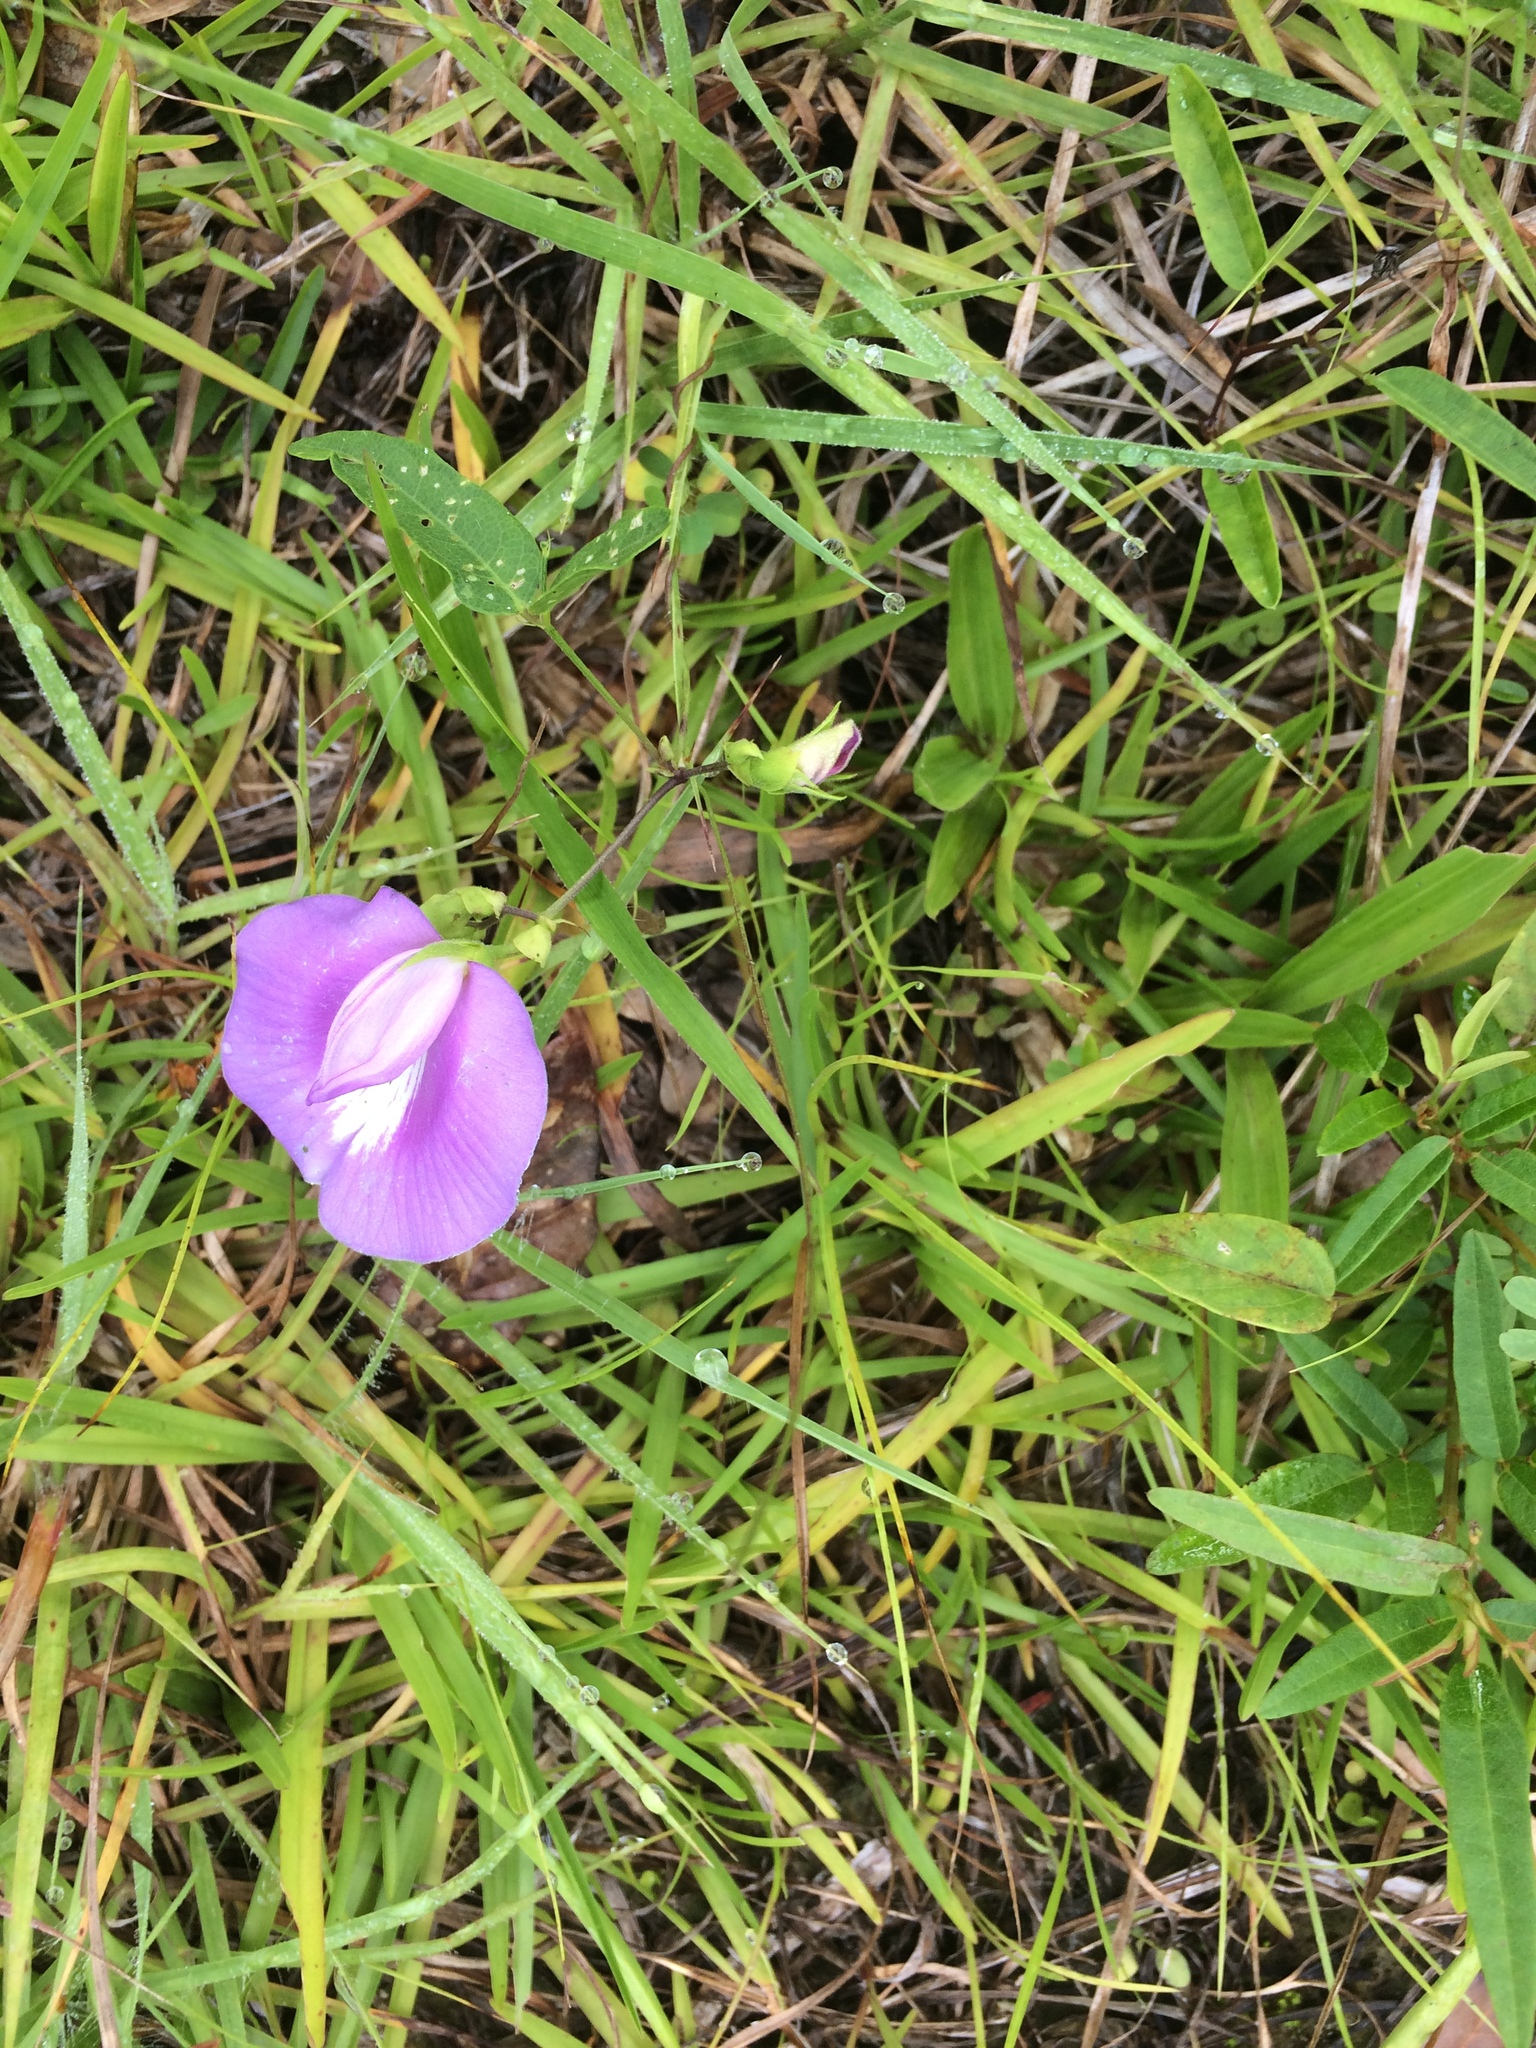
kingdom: Plantae
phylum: Tracheophyta
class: Magnoliopsida
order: Fabales
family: Fabaceae
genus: Centrosema
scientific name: Centrosema virginianum
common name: Butterfly-pea
